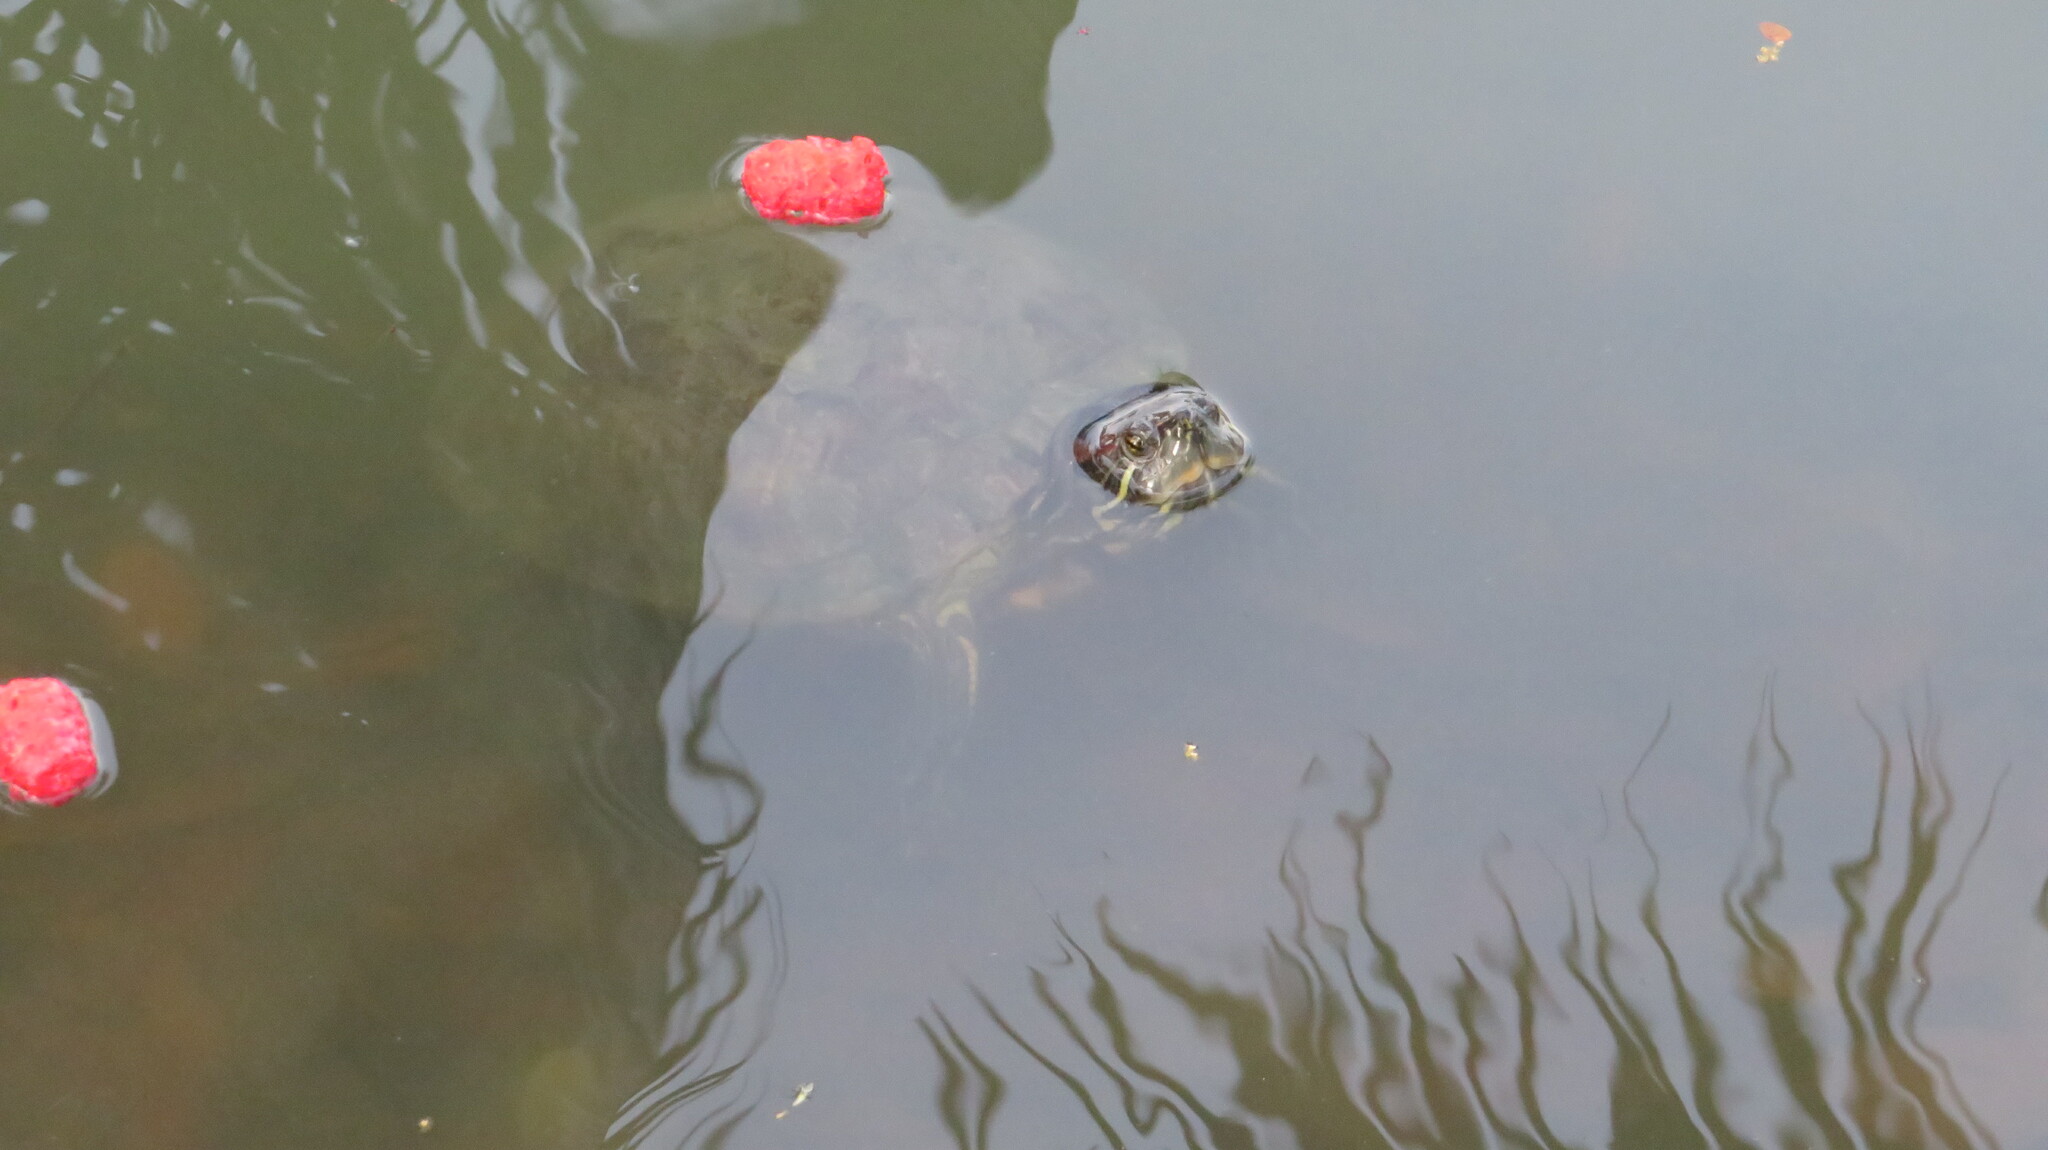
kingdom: Animalia
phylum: Chordata
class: Testudines
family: Emydidae
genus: Trachemys
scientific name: Trachemys scripta
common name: Slider
